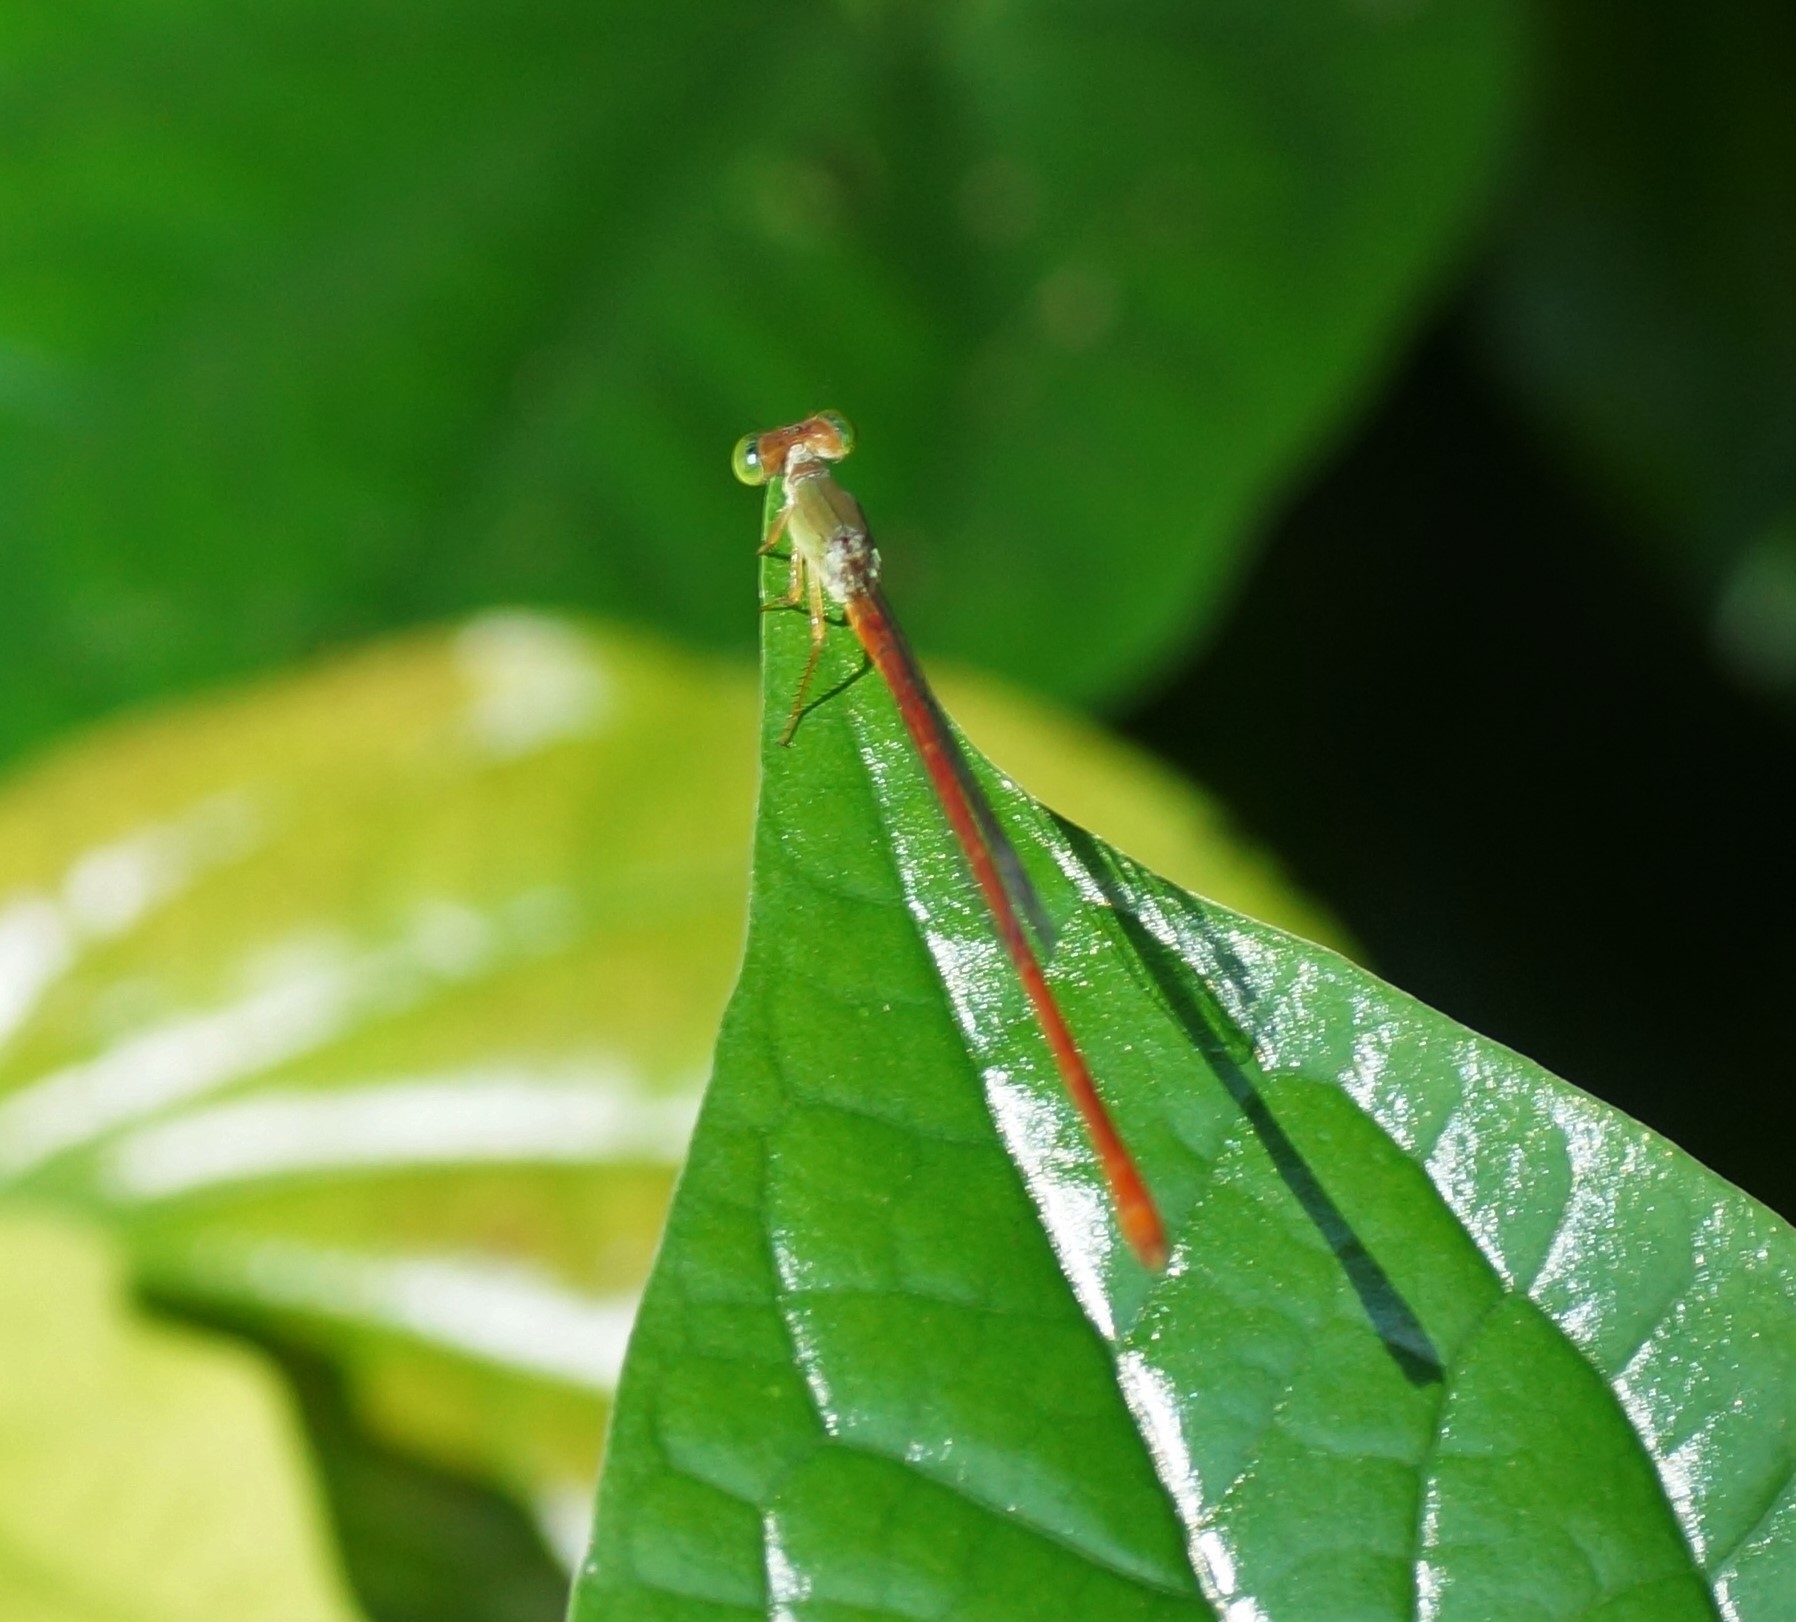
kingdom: Animalia
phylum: Arthropoda
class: Insecta
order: Odonata
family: Coenagrionidae
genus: Ceriagrion
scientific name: Ceriagrion aeruginosum
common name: Redtail
